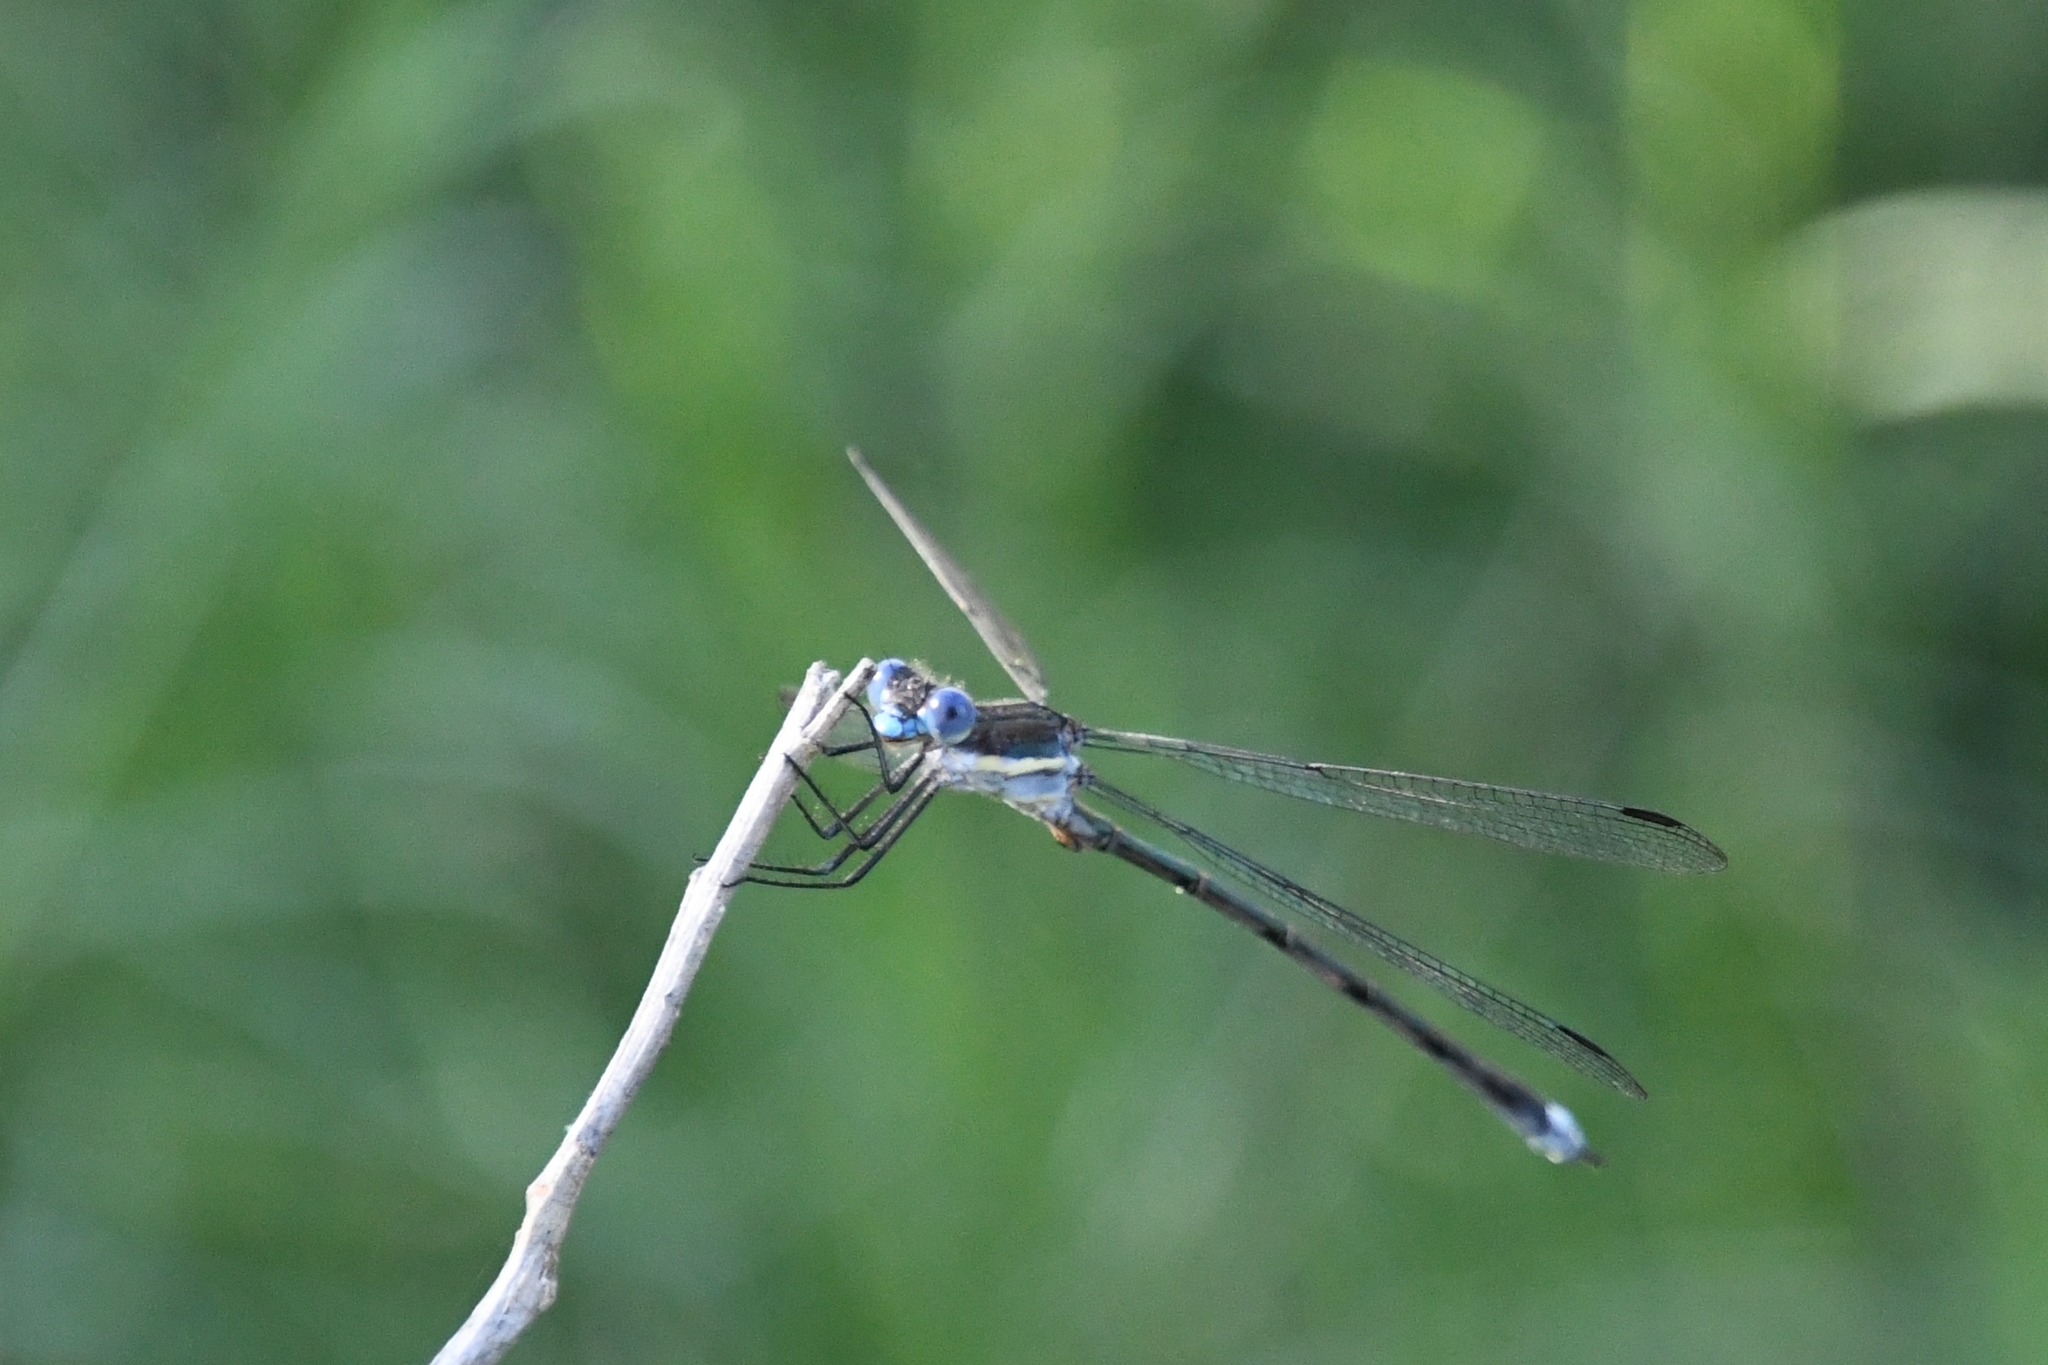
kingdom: Animalia
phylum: Arthropoda
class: Insecta
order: Odonata
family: Lestidae
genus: Archilestes
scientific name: Archilestes grandis
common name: Great spreadwing
